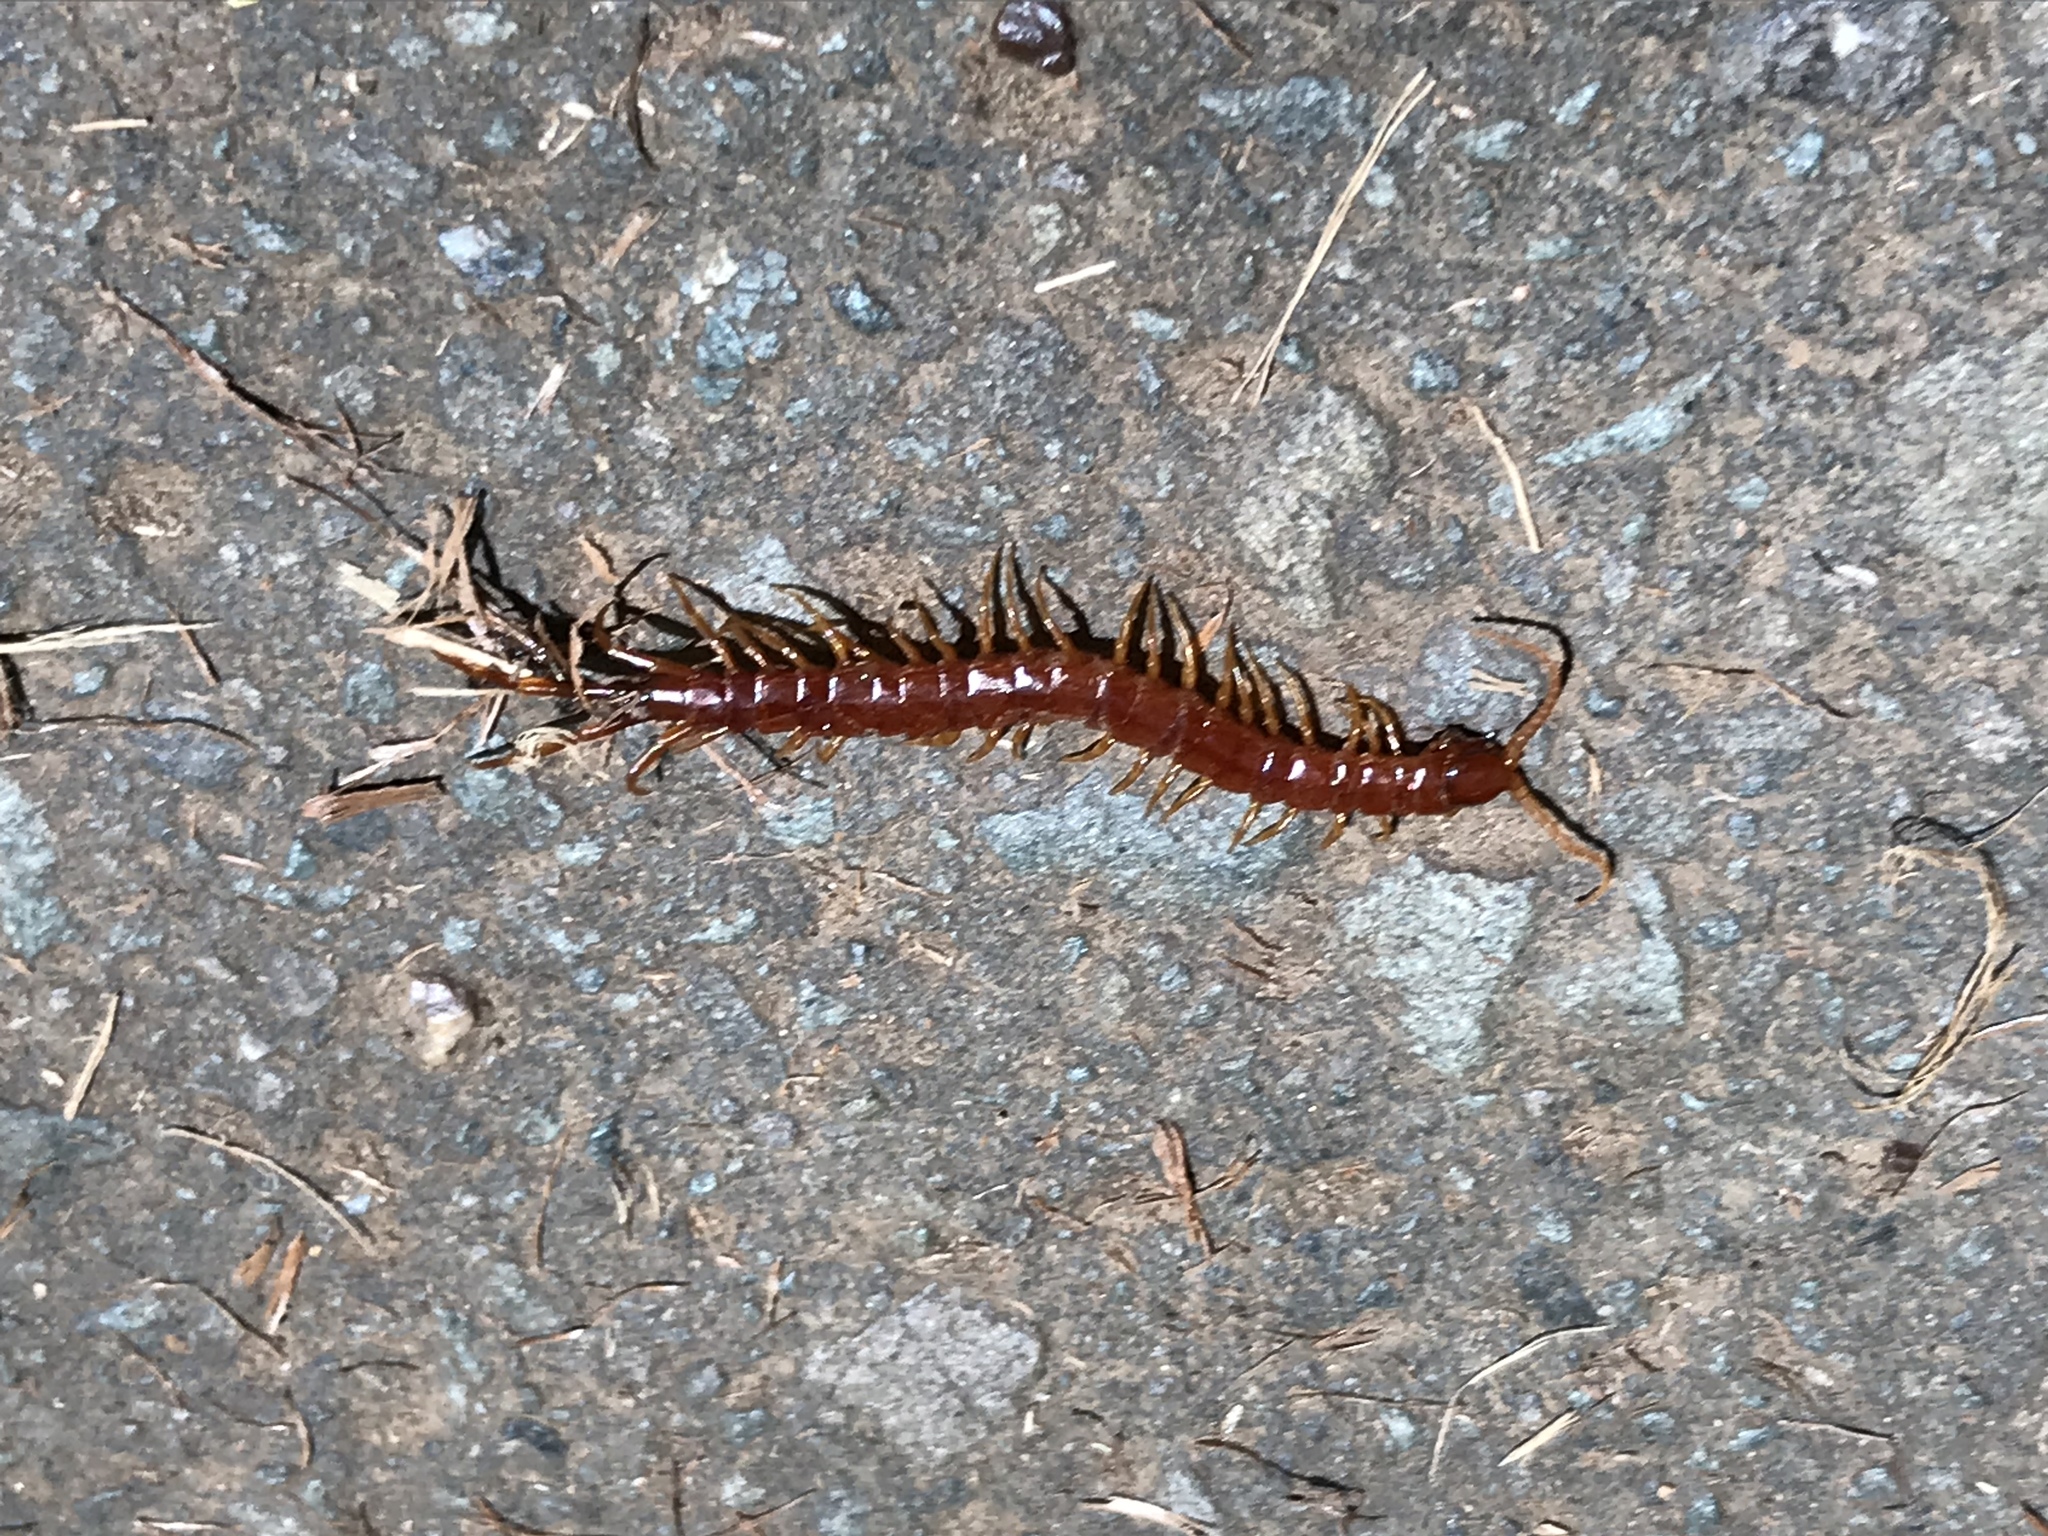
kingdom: Animalia
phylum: Arthropoda
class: Chilopoda
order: Scolopendromorpha
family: Scolopocryptopidae
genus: Scolopocryptops
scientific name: Scolopocryptops spinicaudus
